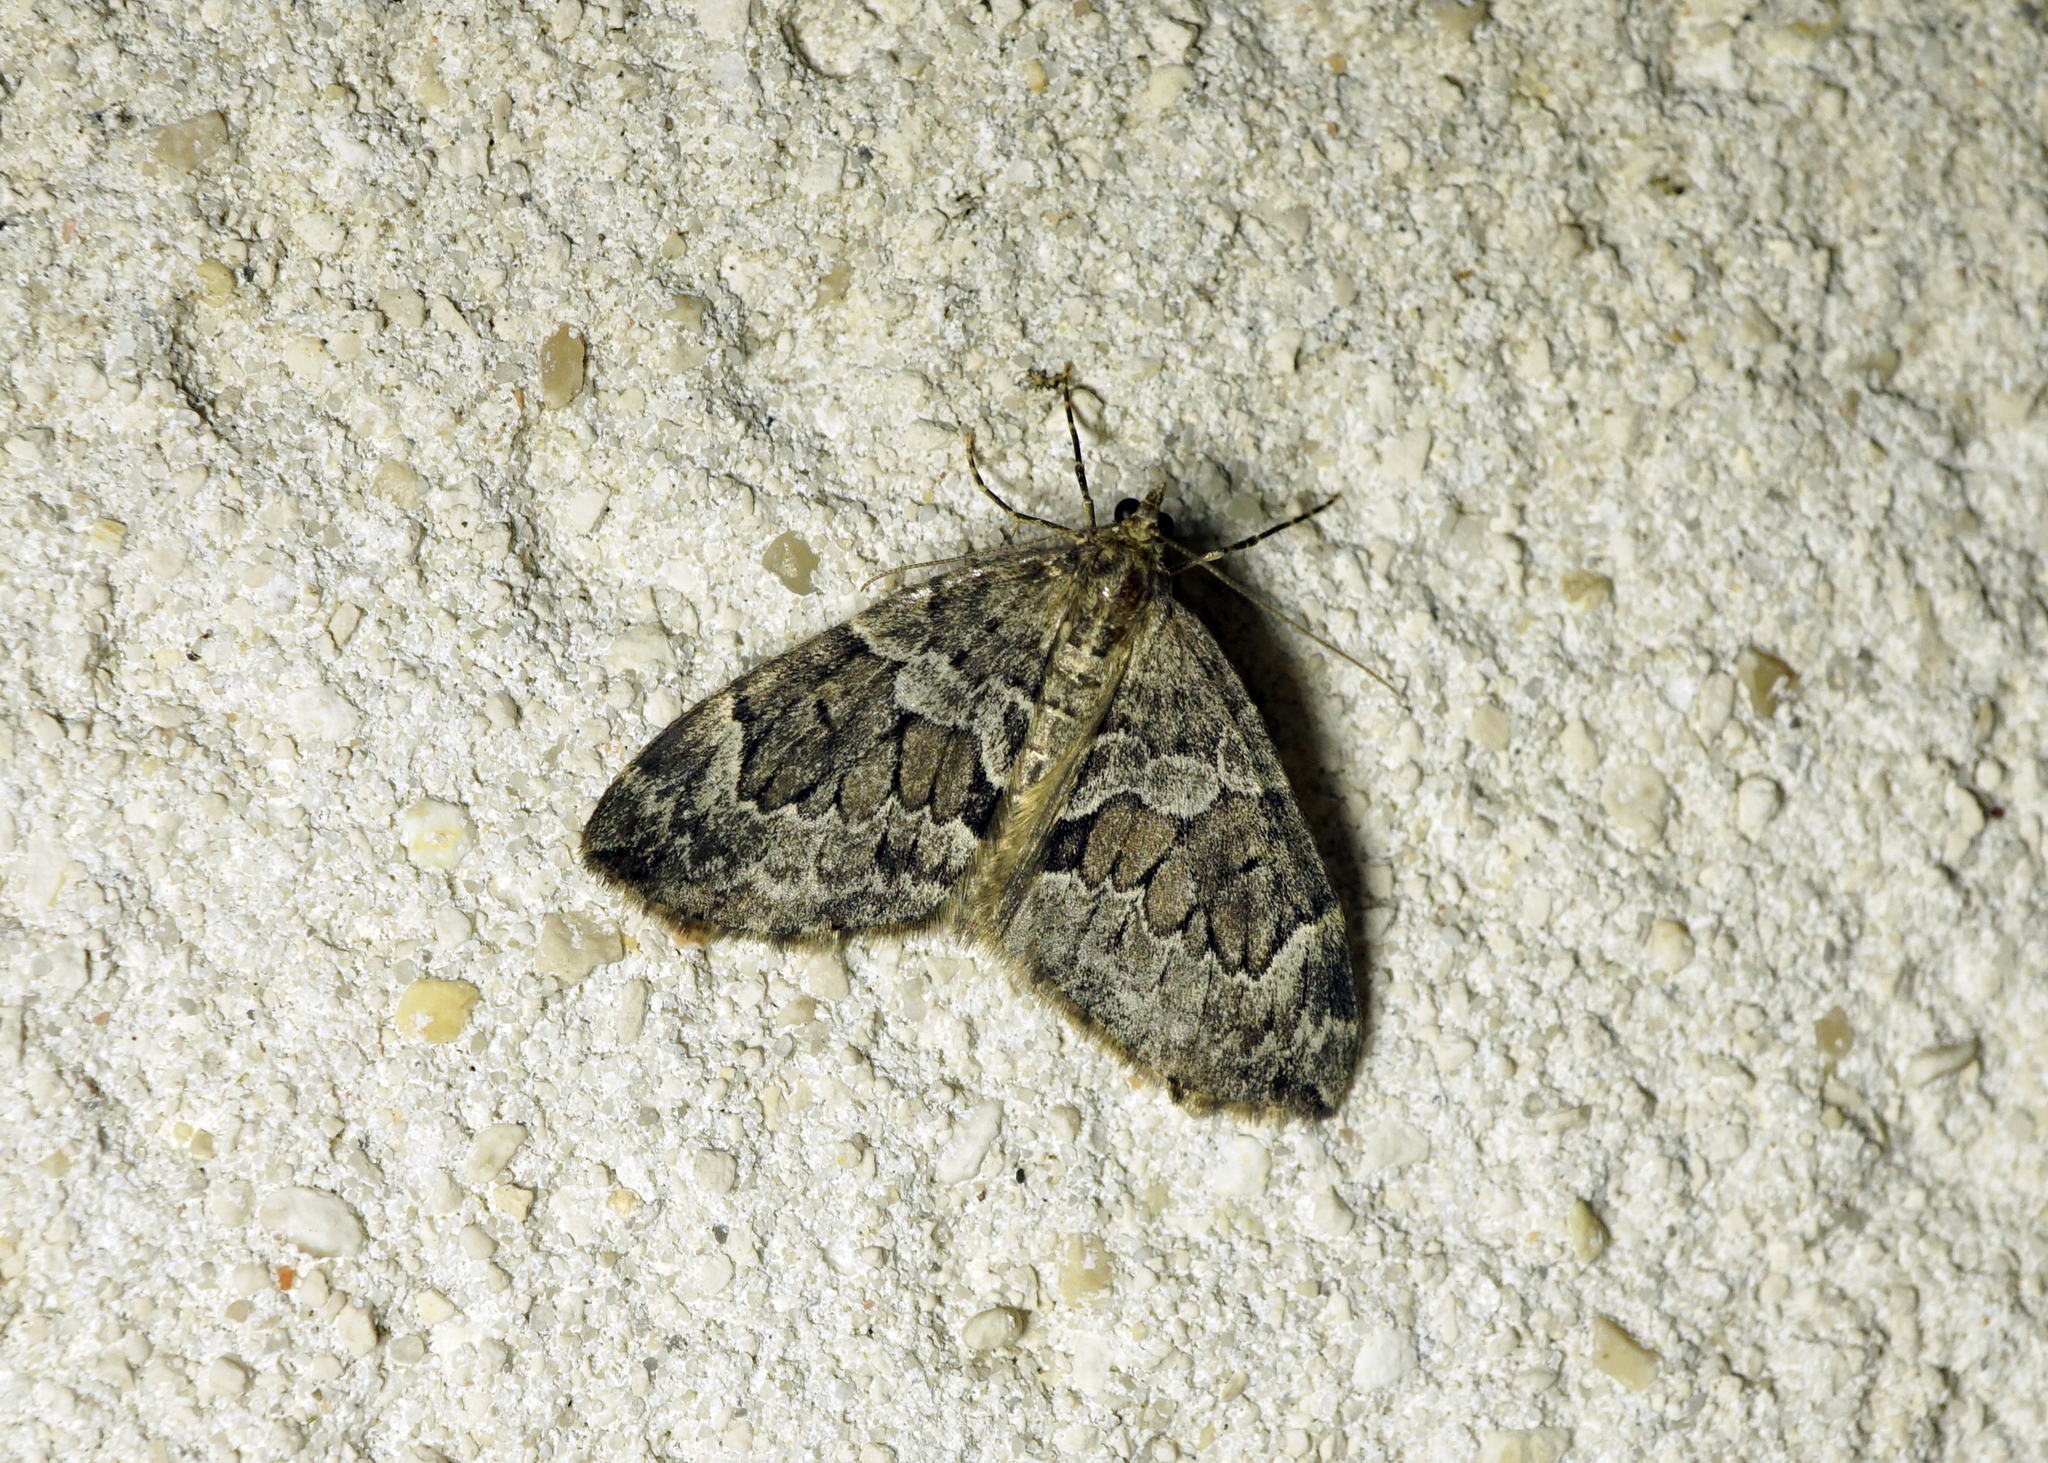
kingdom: Animalia
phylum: Arthropoda
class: Insecta
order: Lepidoptera
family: Geometridae
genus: Thera
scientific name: Thera britannica
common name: Spruce carpet
